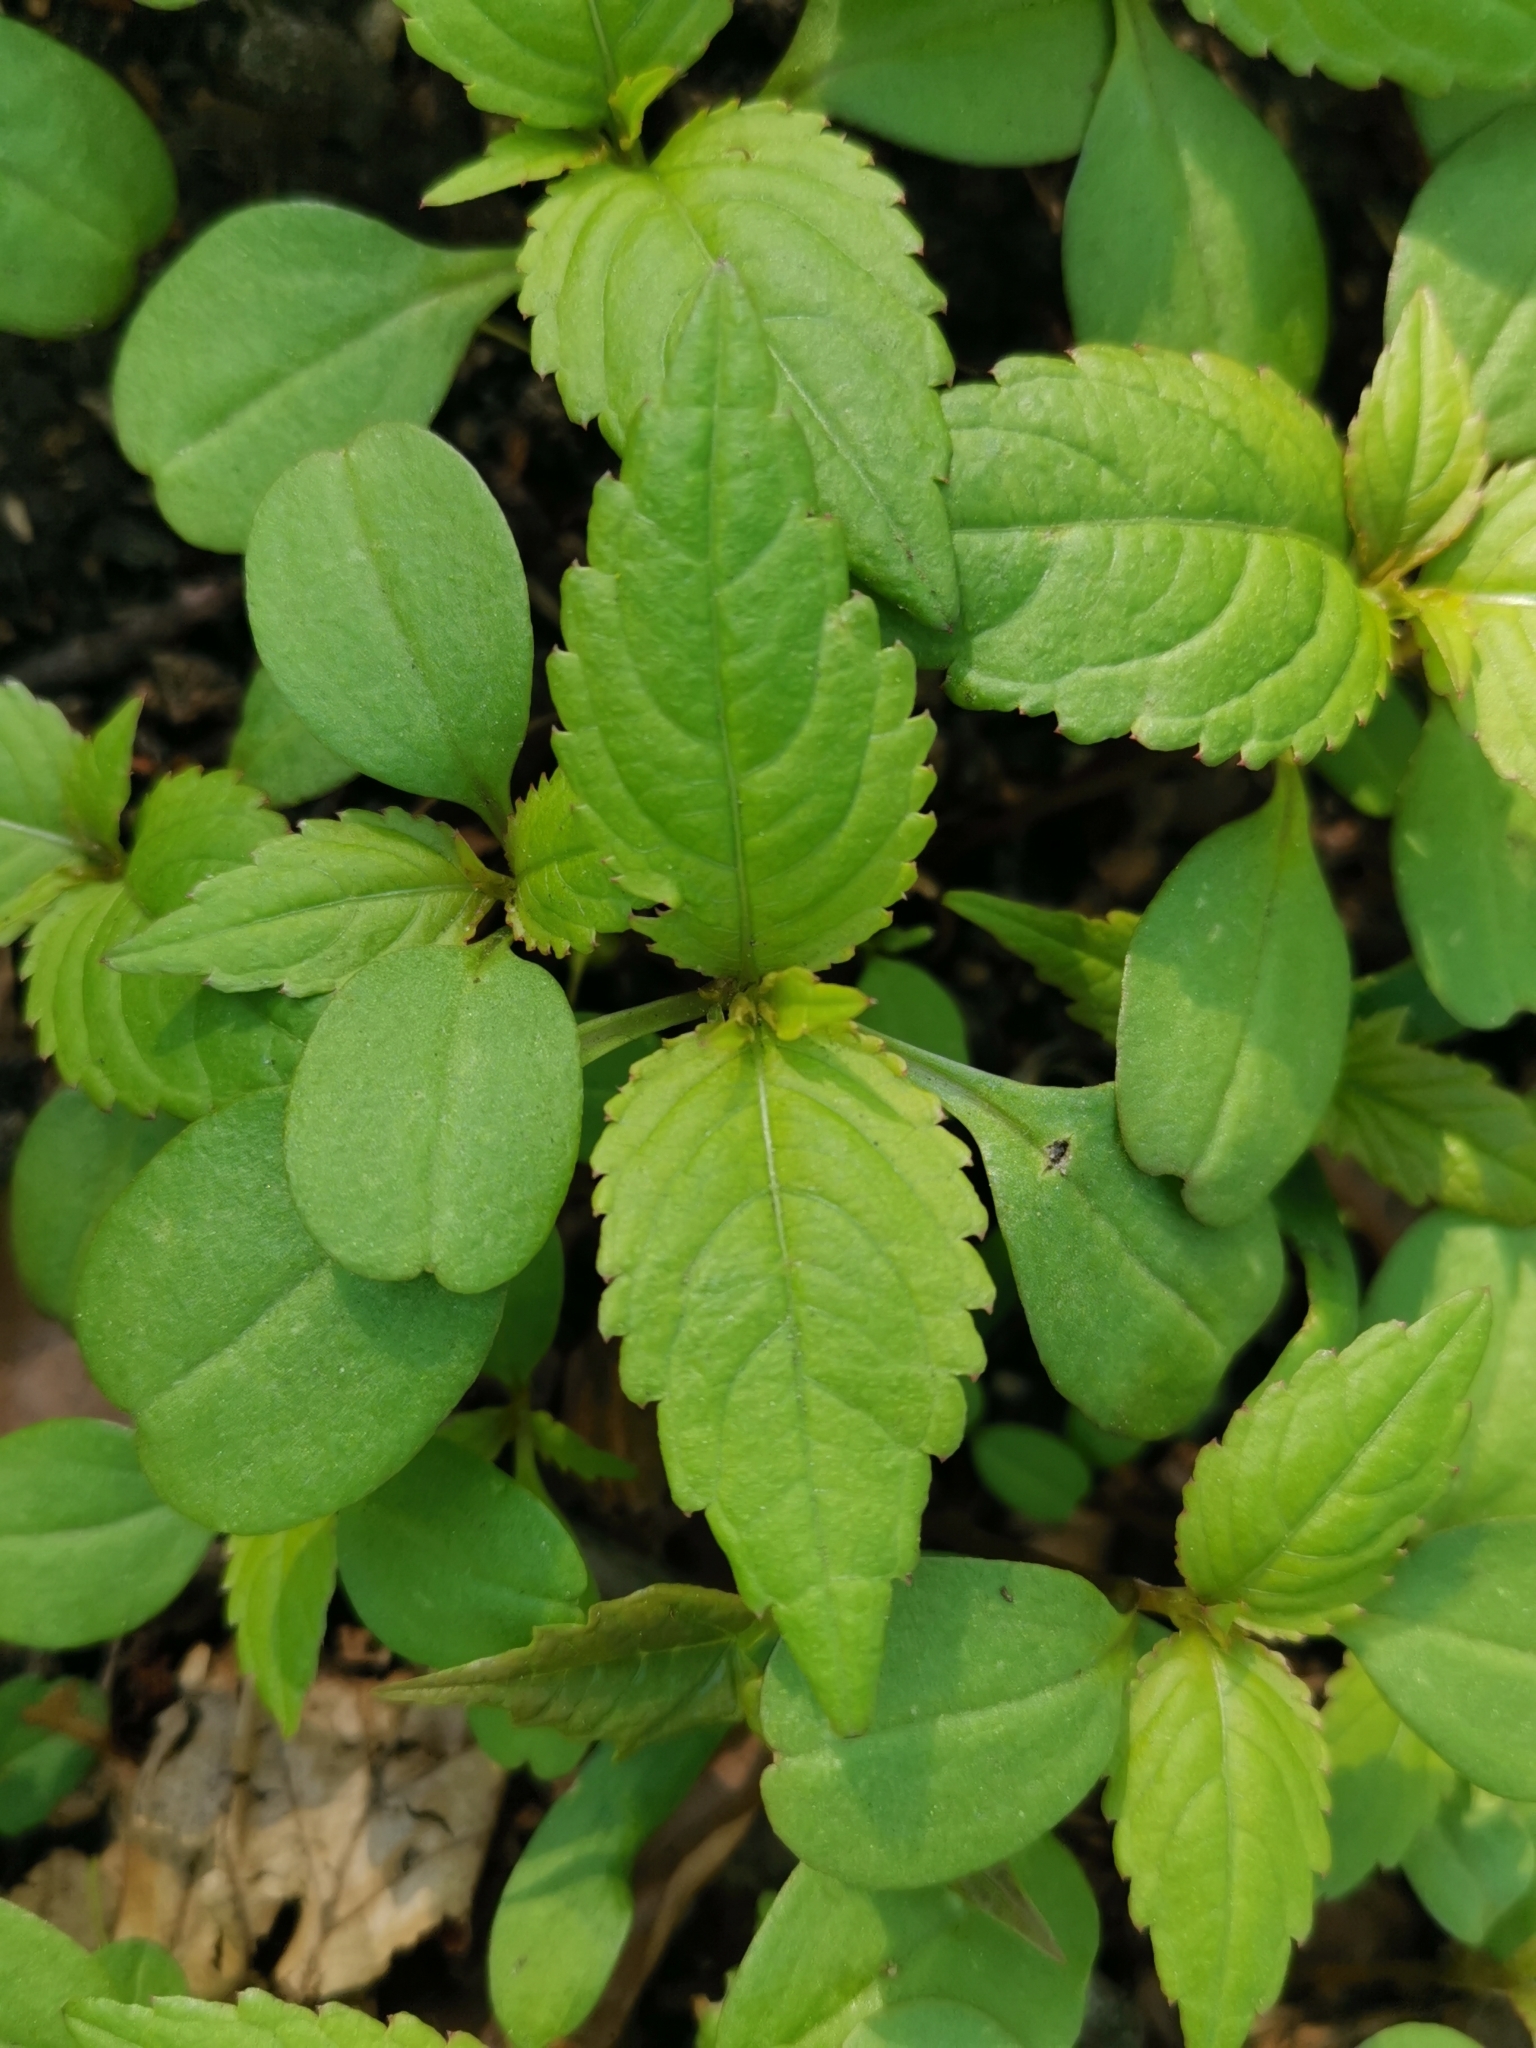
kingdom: Plantae
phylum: Tracheophyta
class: Magnoliopsida
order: Ericales
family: Balsaminaceae
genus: Impatiens
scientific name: Impatiens parviflora
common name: Small balsam
